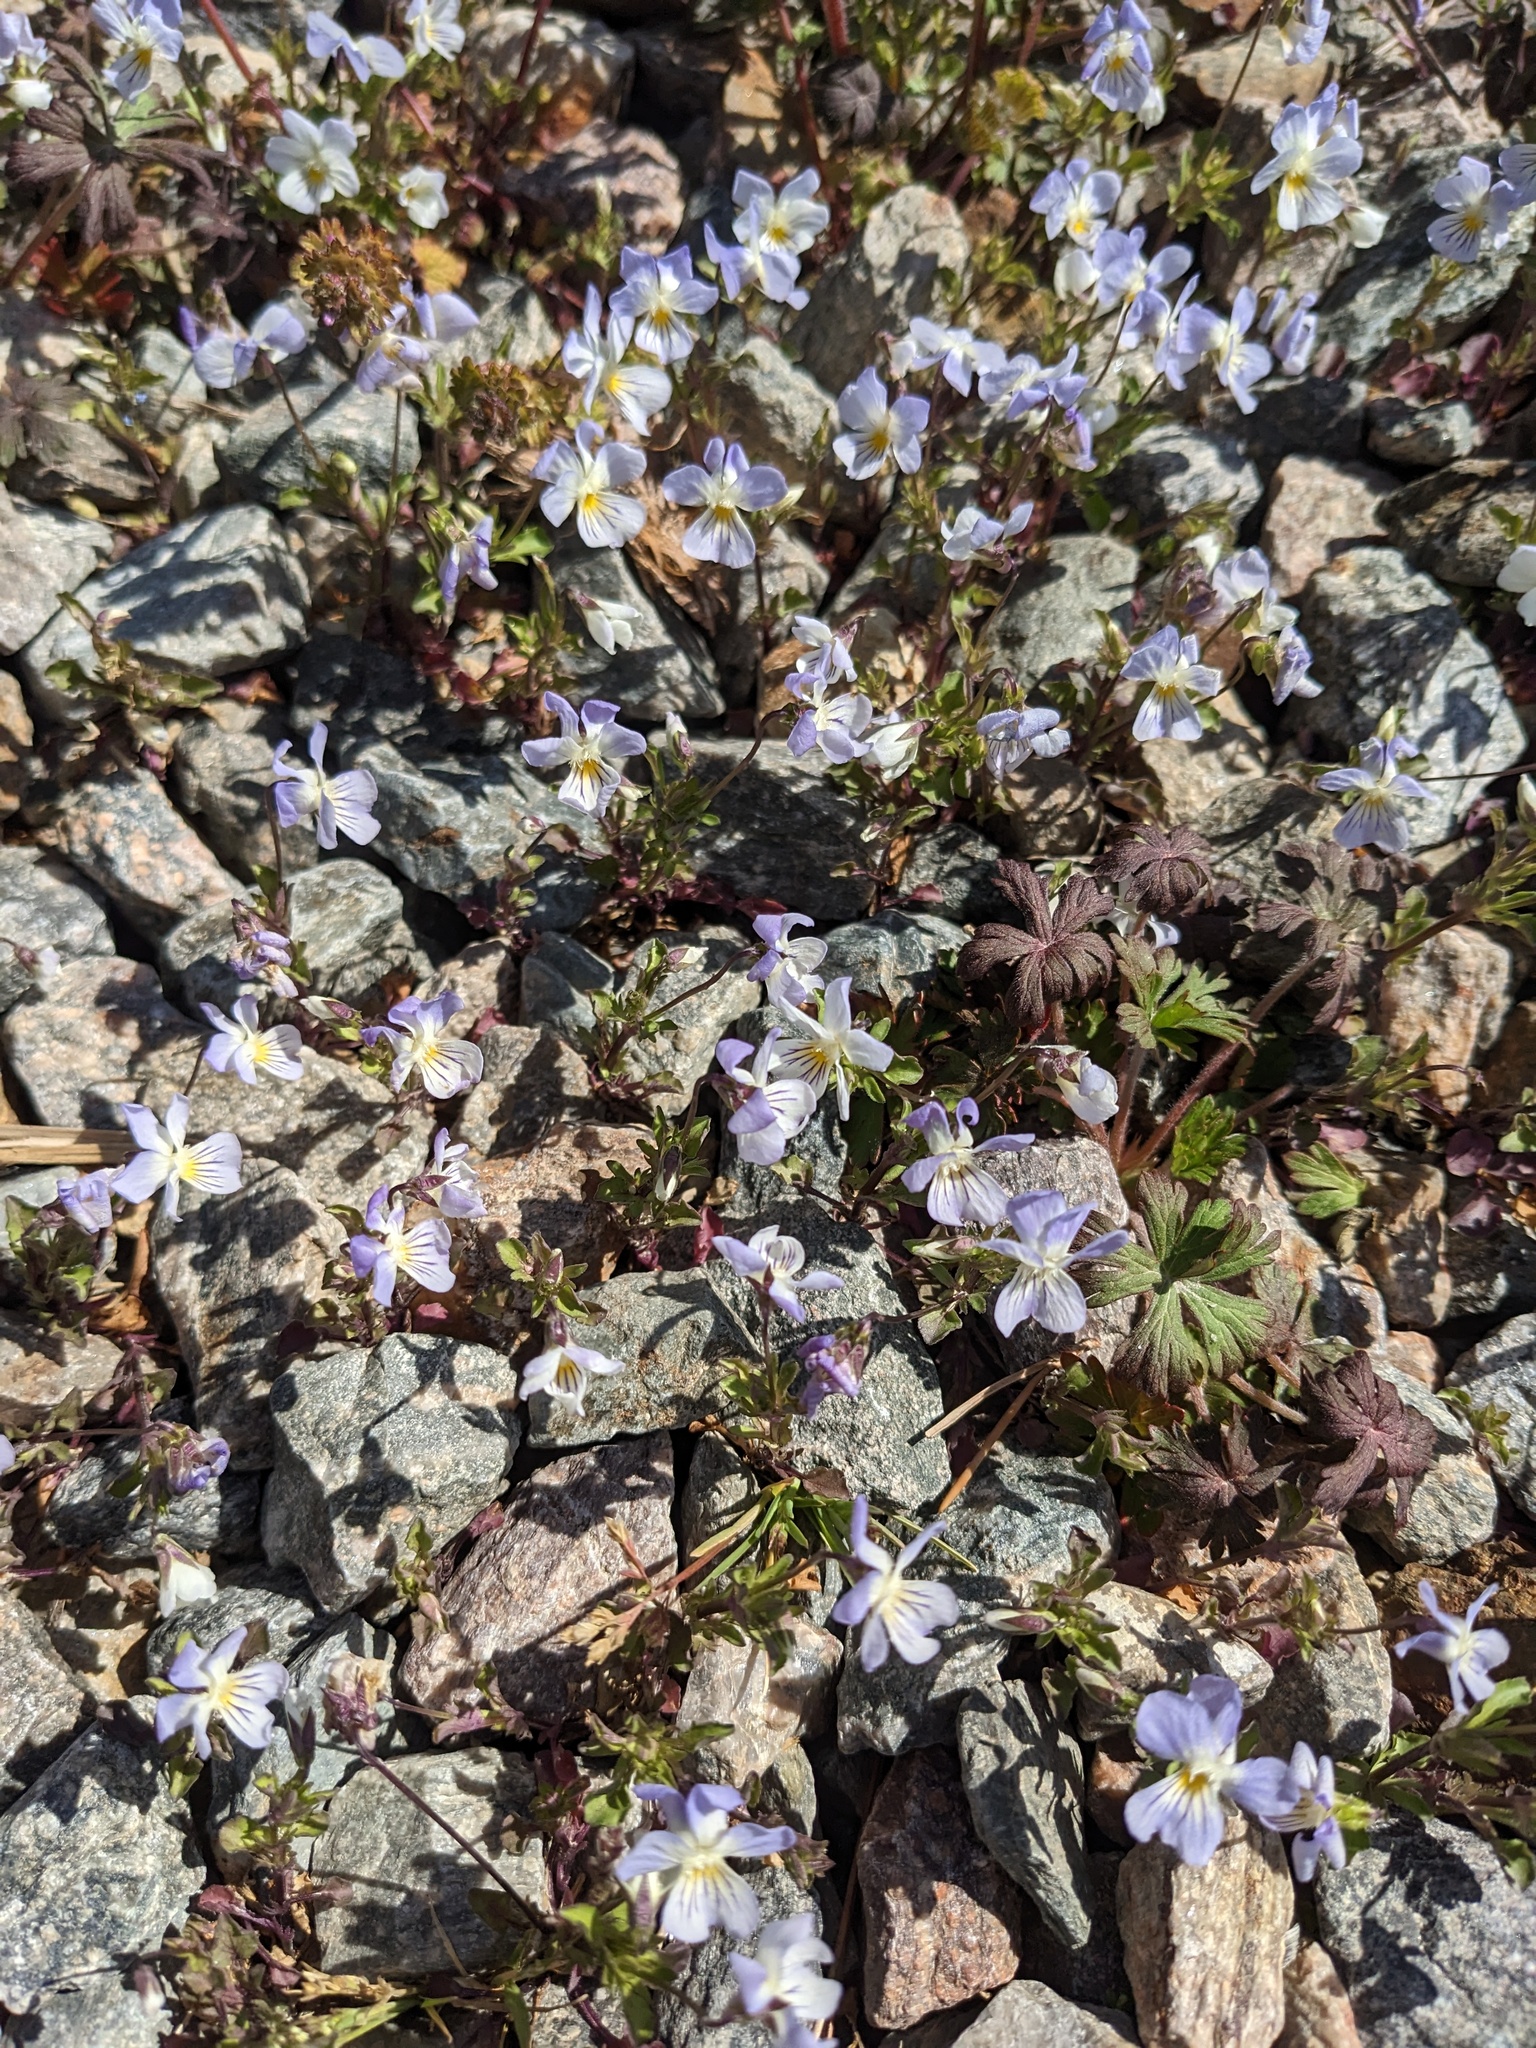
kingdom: Plantae
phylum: Tracheophyta
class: Magnoliopsida
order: Malpighiales
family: Violaceae
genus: Viola
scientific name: Viola rafinesquei
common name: American field pansy
